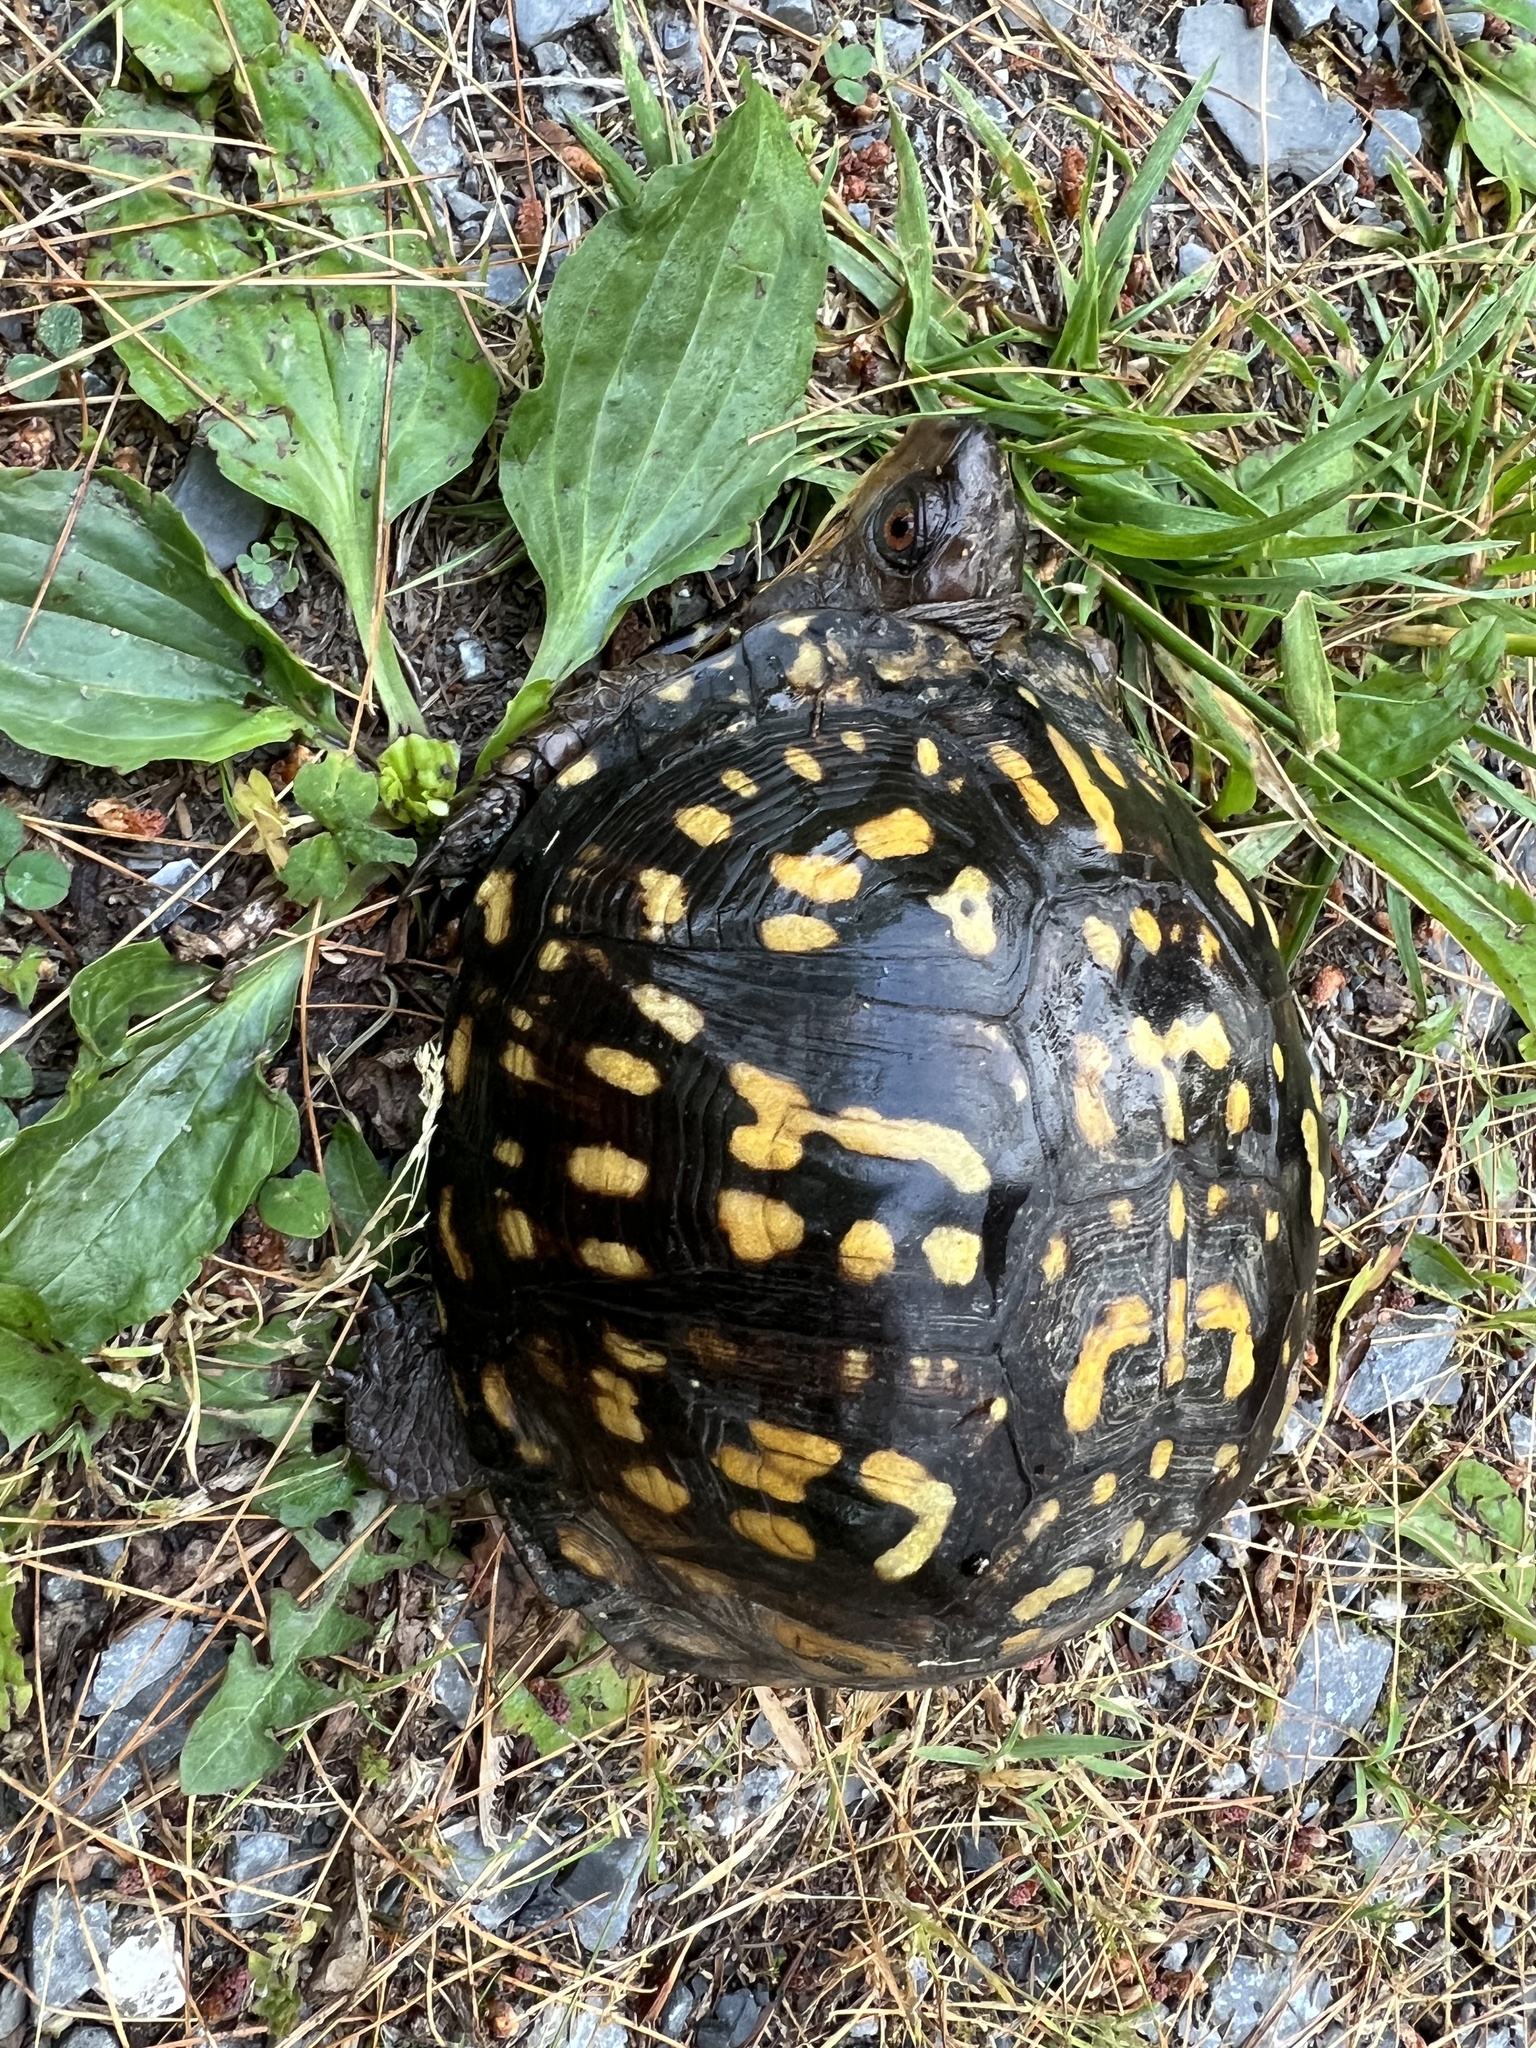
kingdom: Animalia
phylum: Chordata
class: Testudines
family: Emydidae
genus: Terrapene
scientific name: Terrapene carolina
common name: Common box turtle
